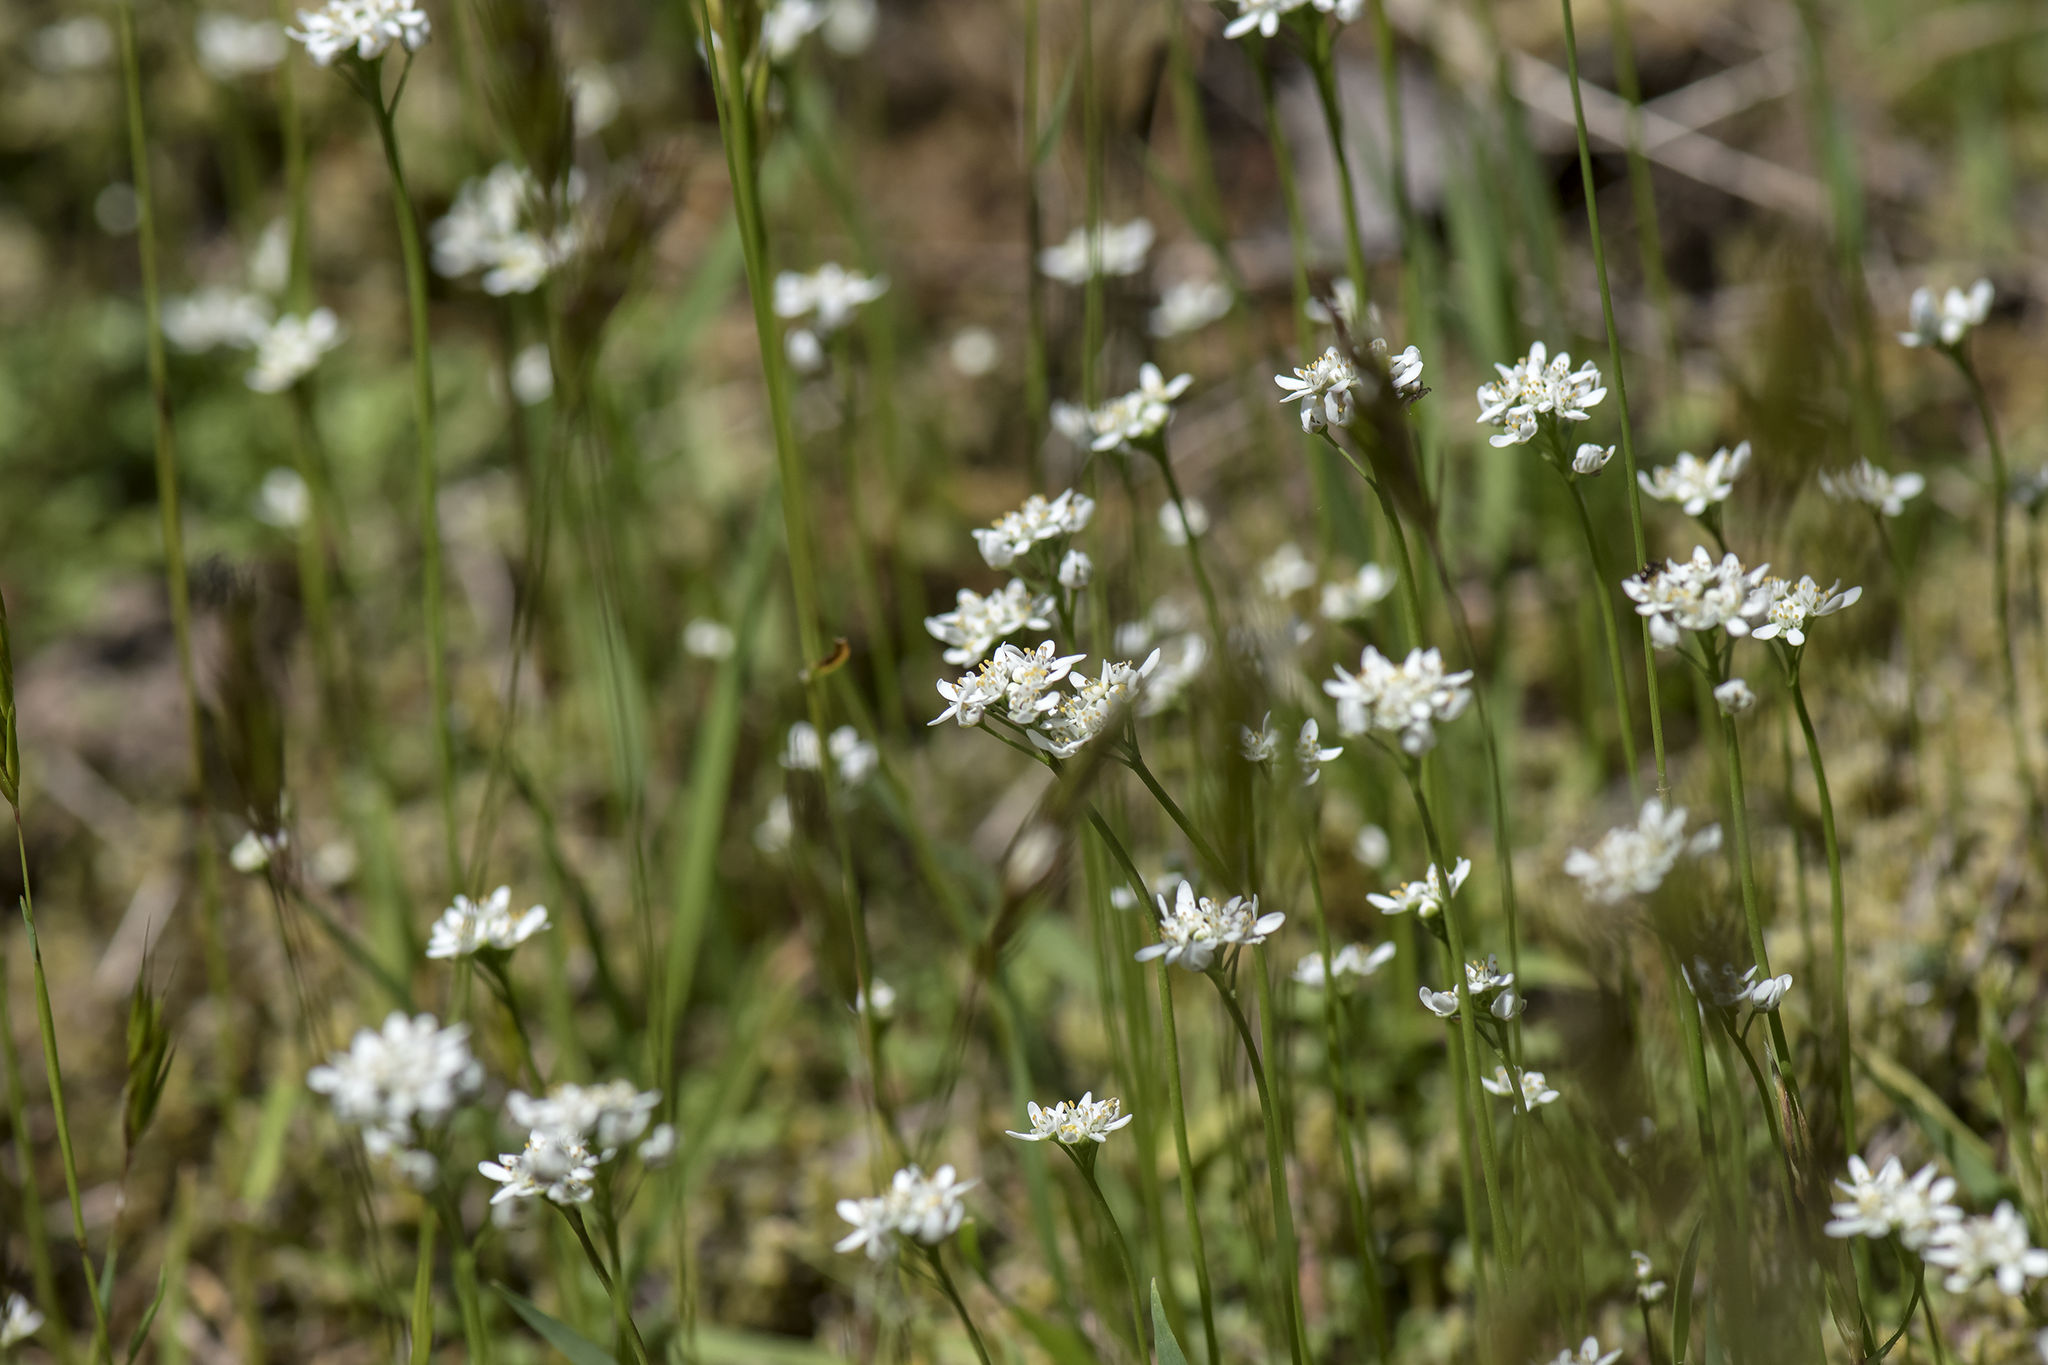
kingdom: Plantae
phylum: Tracheophyta
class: Magnoliopsida
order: Brassicales
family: Brassicaceae
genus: Teesdalia
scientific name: Teesdalia nudicaulis
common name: Shepherd's cress
